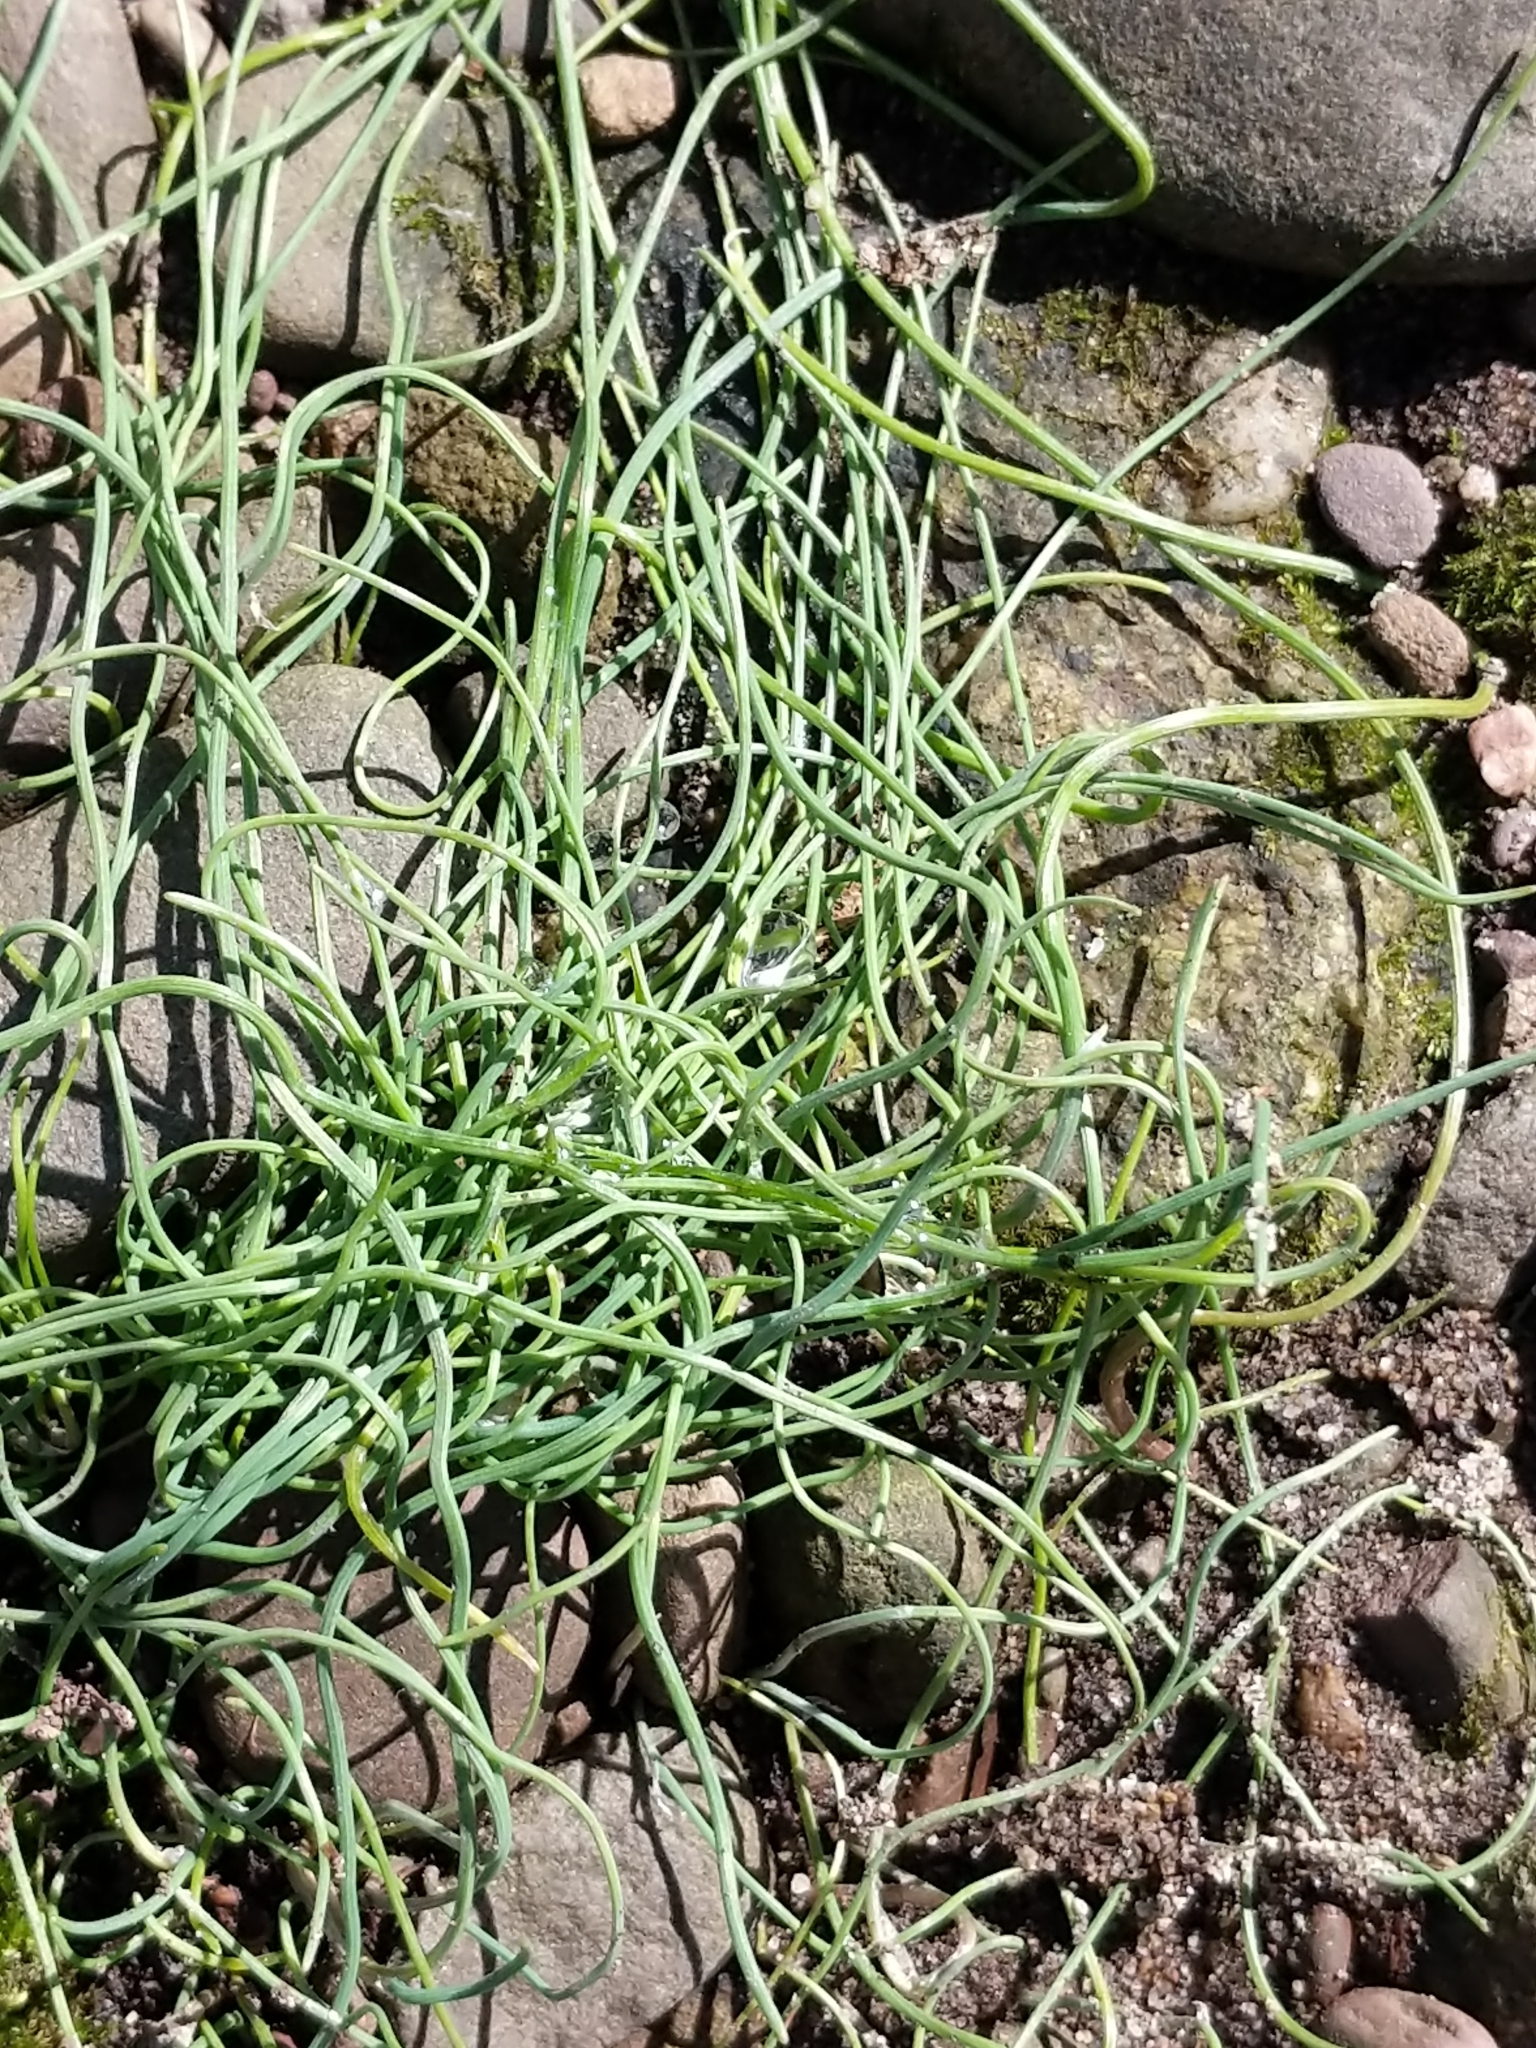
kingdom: Plantae
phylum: Tracheophyta
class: Liliopsida
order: Asparagales
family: Amaryllidaceae
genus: Allium
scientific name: Allium vineale
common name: Crow garlic
